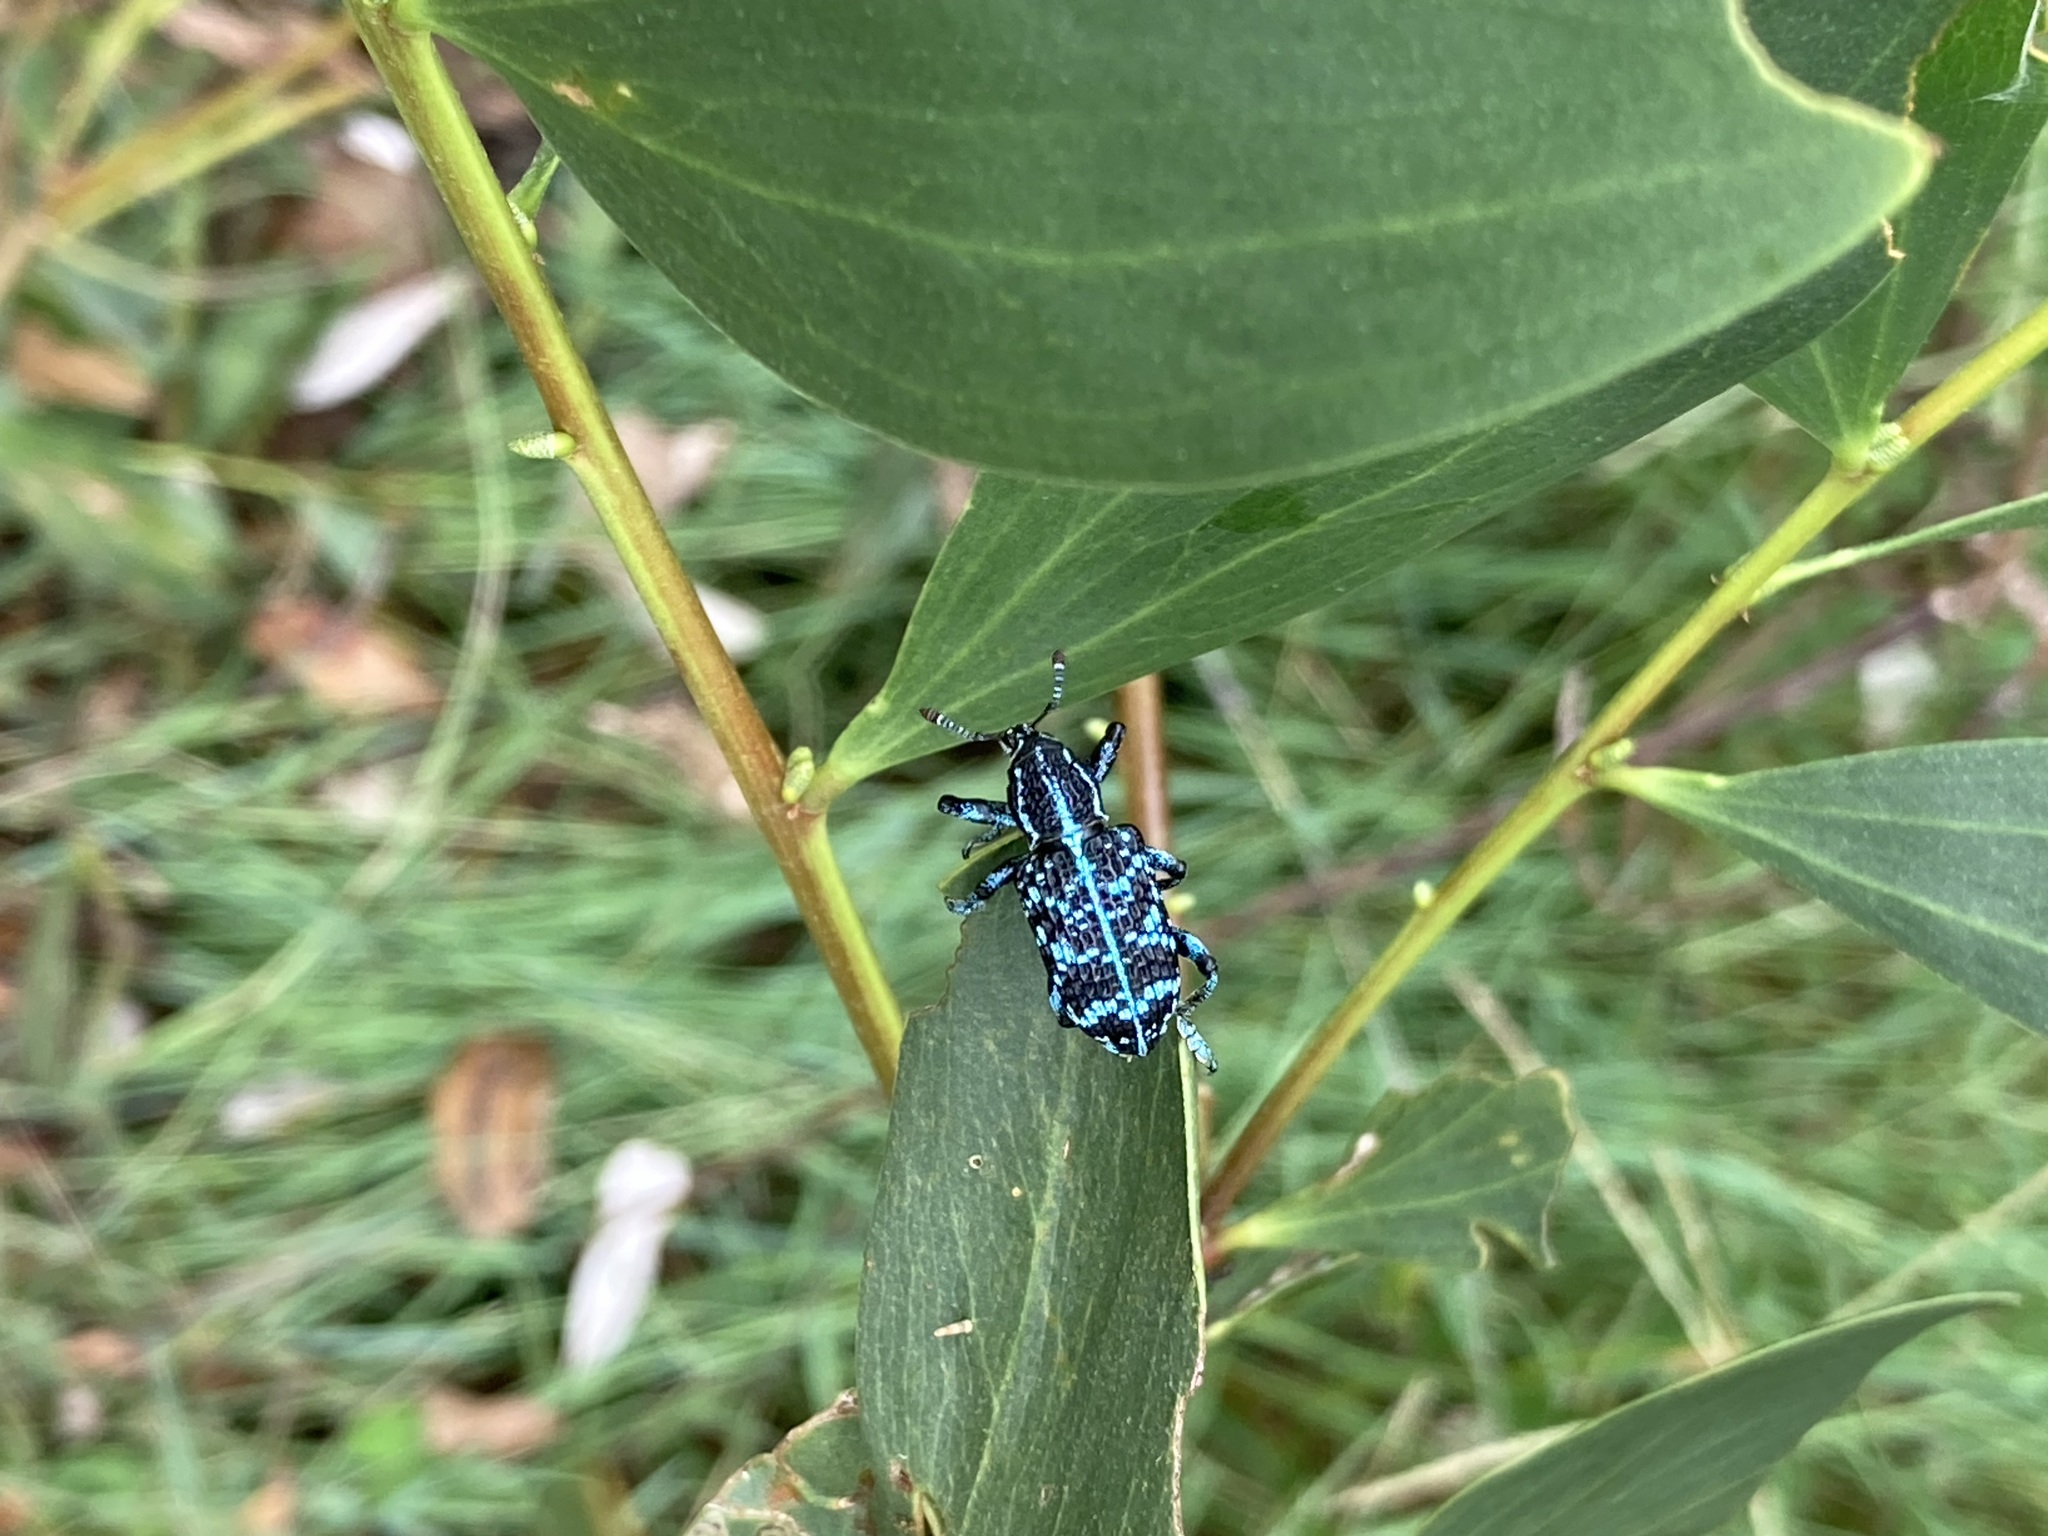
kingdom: Animalia
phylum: Arthropoda
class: Insecta
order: Coleoptera
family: Curculionidae
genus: Chrysolopus
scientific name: Chrysolopus spectabilis
